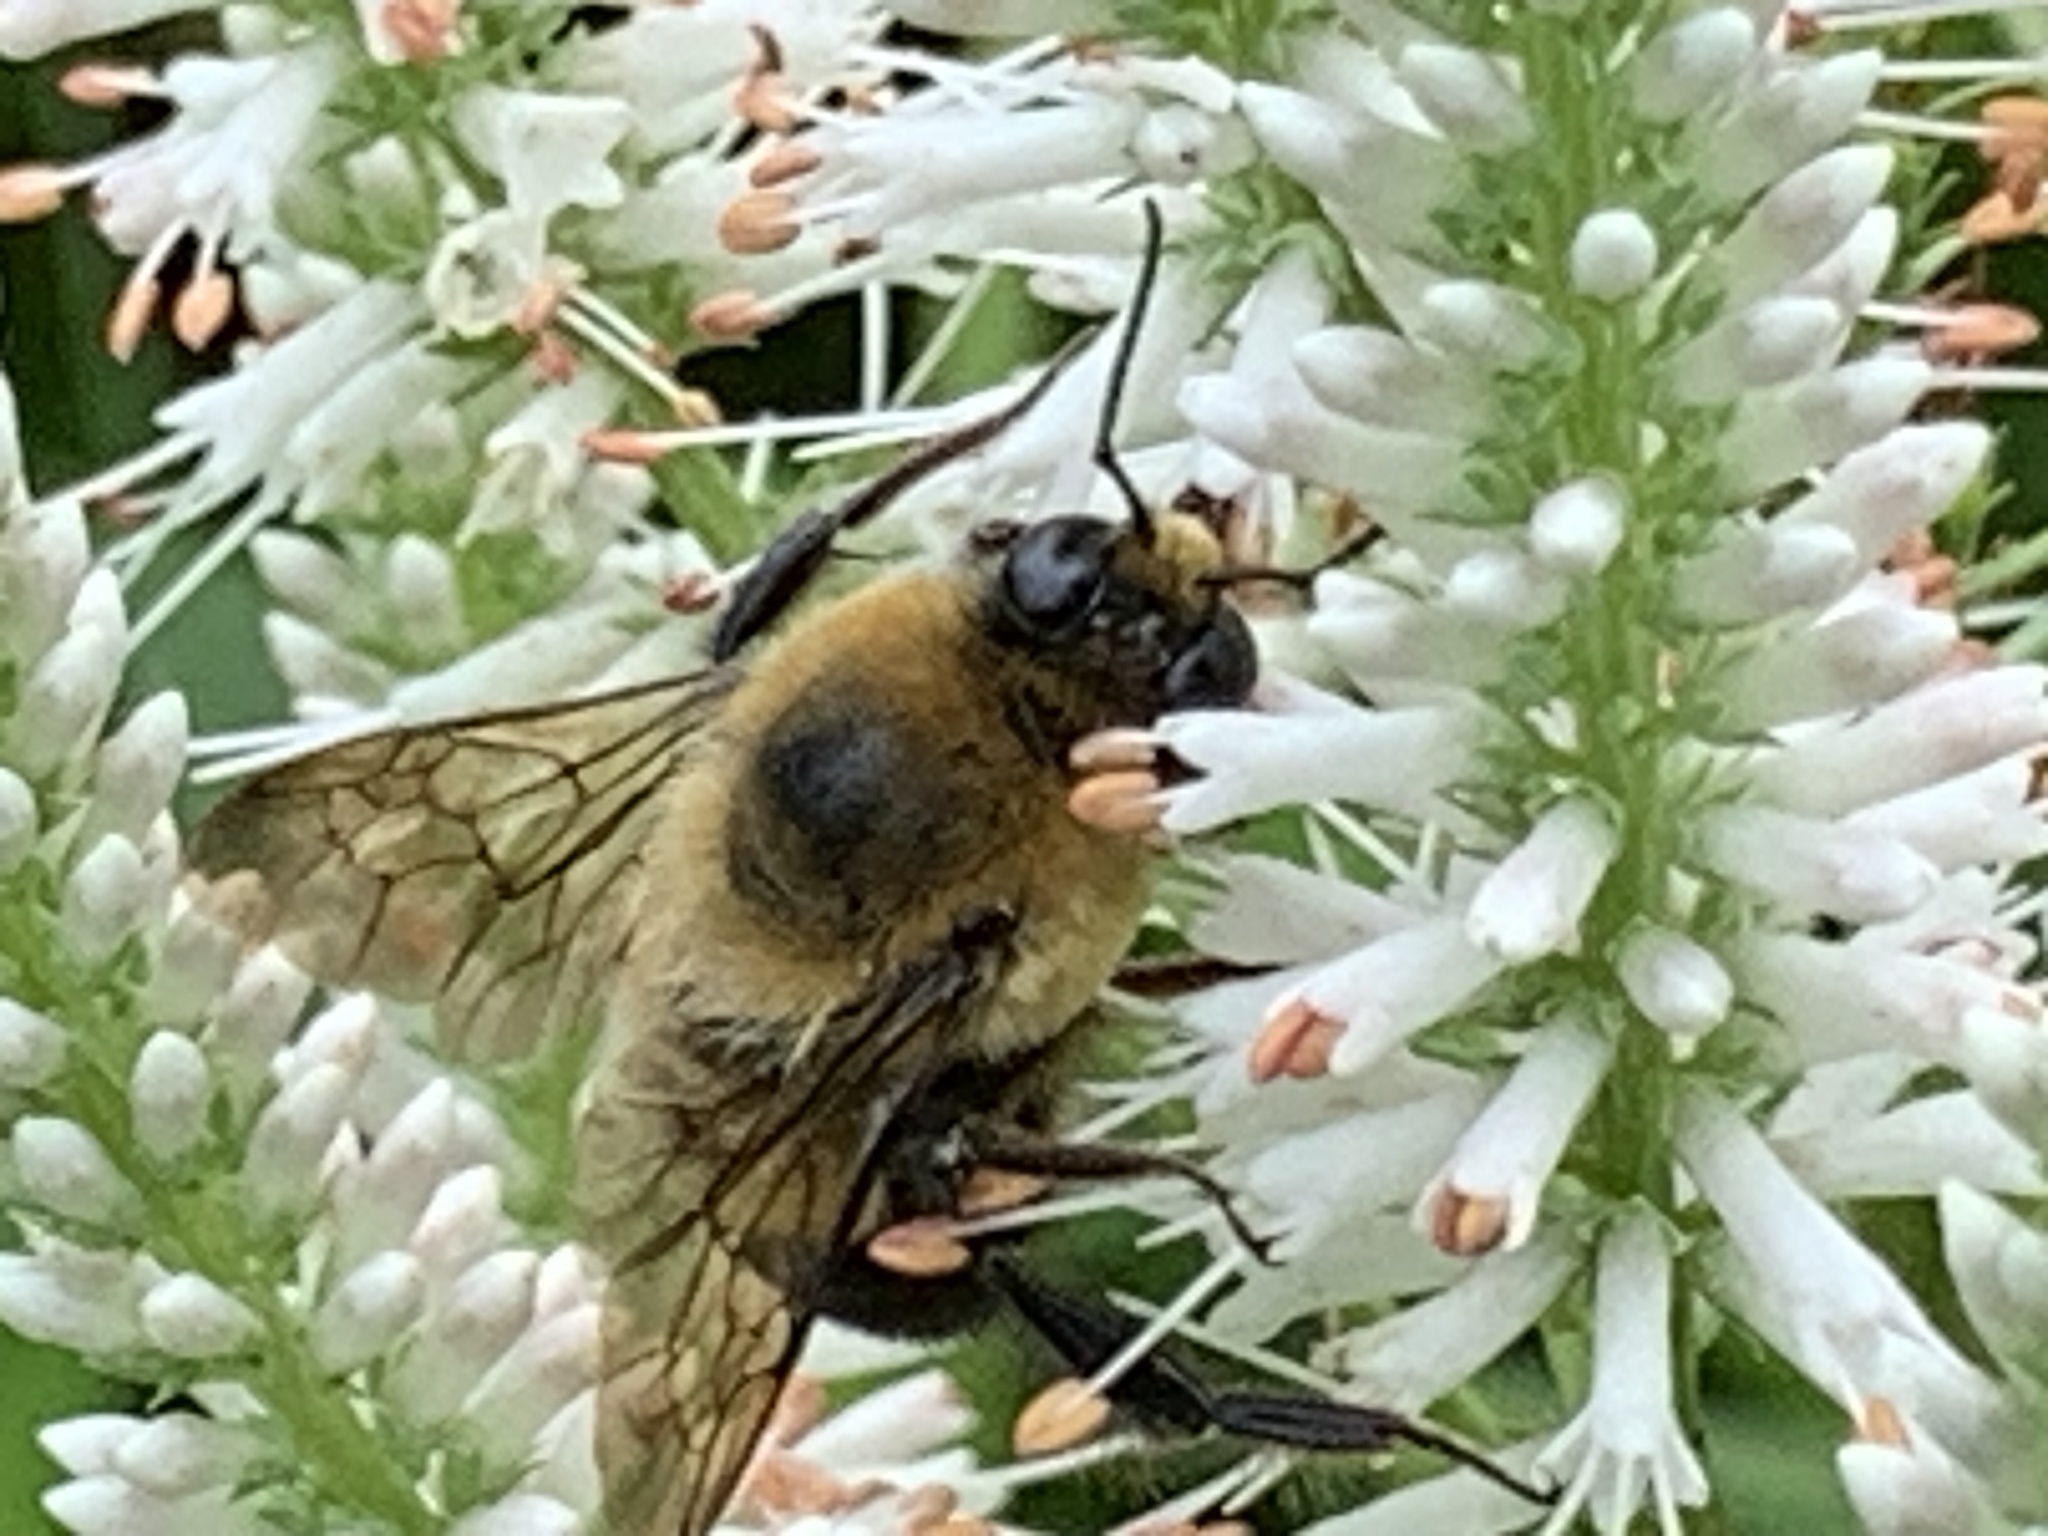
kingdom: Animalia
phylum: Arthropoda
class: Insecta
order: Hymenoptera
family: Apidae
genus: Bombus
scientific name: Bombus griseocollis
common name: Brown-belted bumble bee
